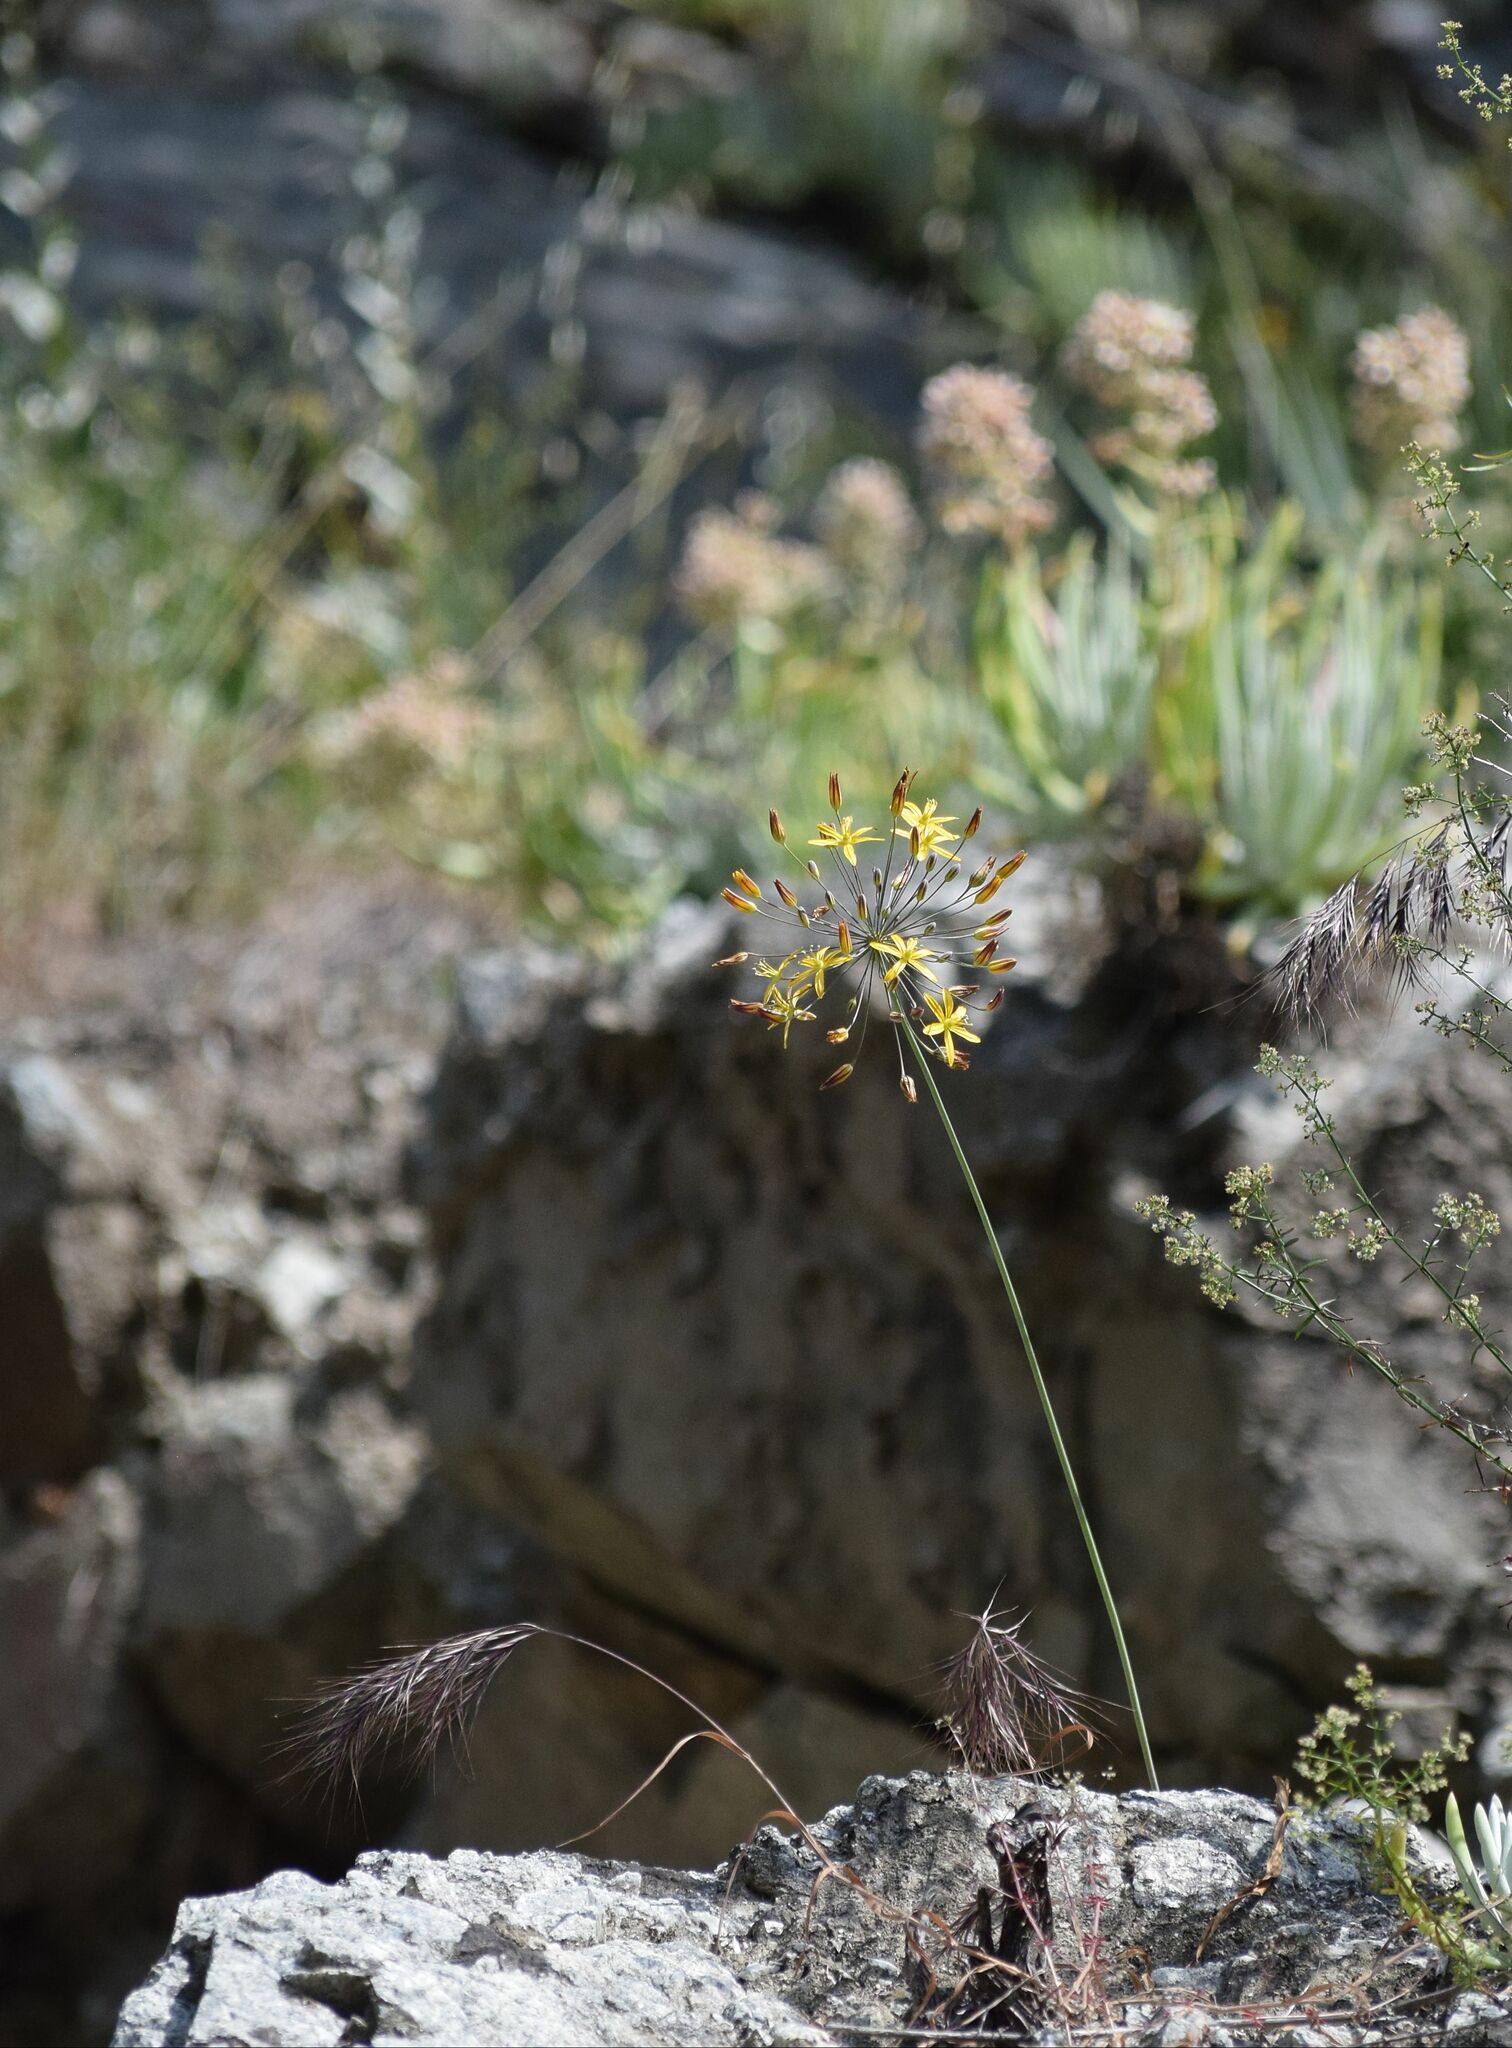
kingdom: Plantae
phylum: Tracheophyta
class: Liliopsida
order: Asparagales
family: Asparagaceae
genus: Bloomeria
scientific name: Bloomeria crocea
